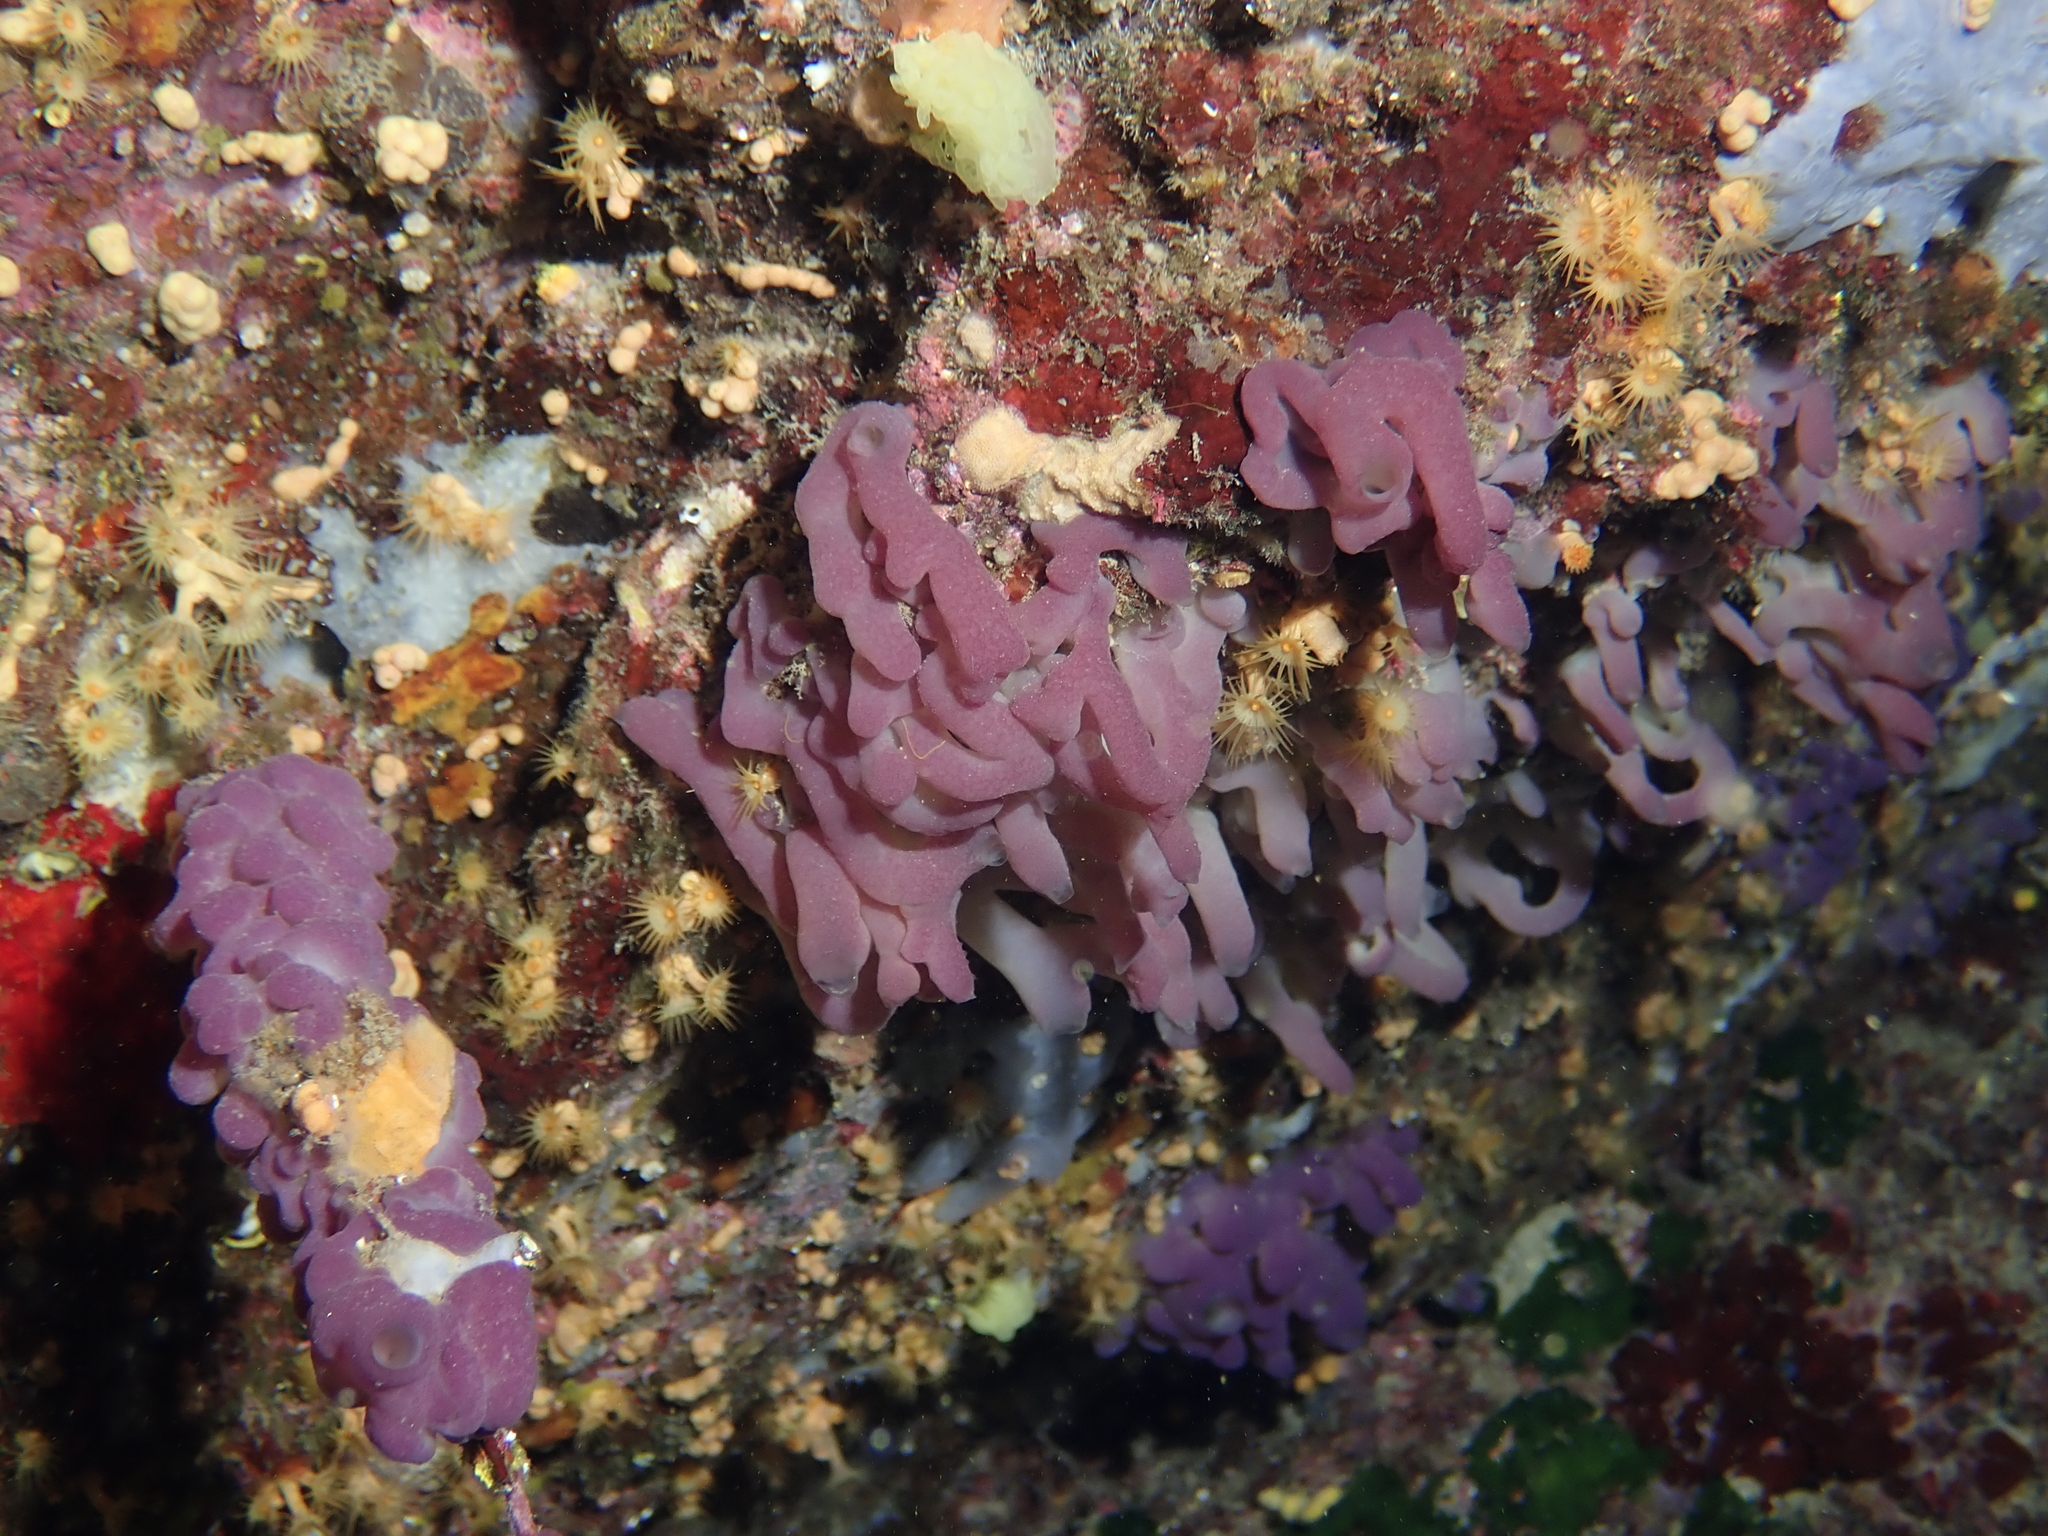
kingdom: Animalia
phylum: Porifera
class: Homoscleromorpha
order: Homosclerophorida
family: Oscarellidae
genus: Oscarella
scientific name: Oscarella lobularis
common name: Flesh sponge
